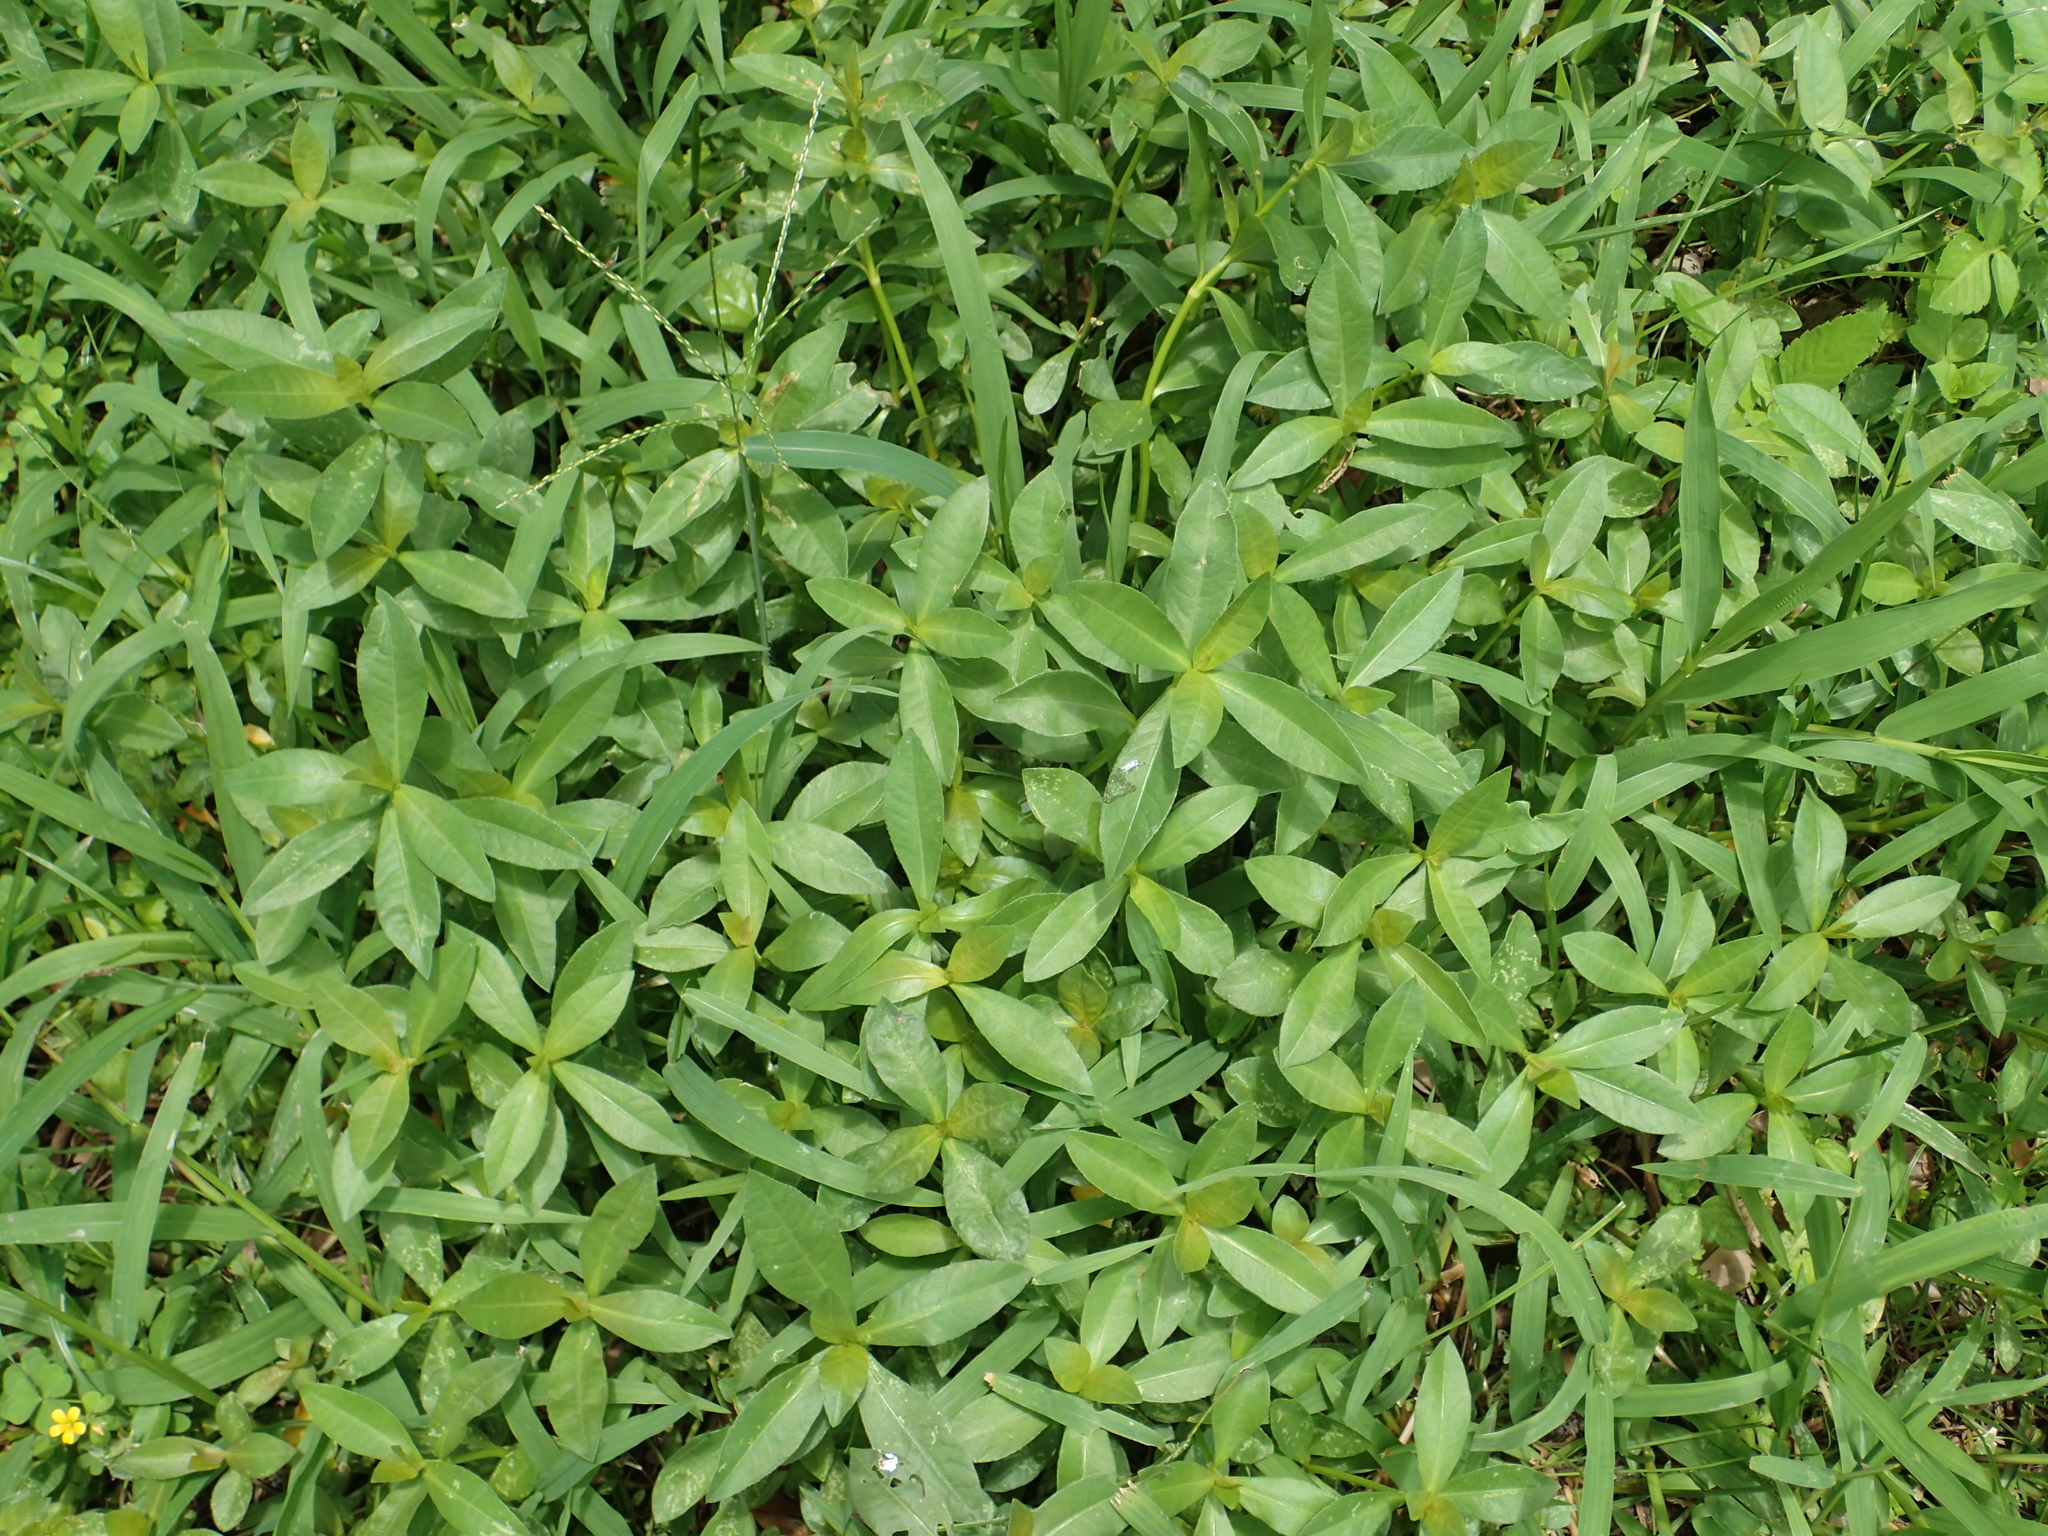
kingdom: Plantae
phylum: Tracheophyta
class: Magnoliopsida
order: Caryophyllales
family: Amaranthaceae
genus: Alternanthera
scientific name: Alternanthera philoxeroides
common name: Alligatorweed
